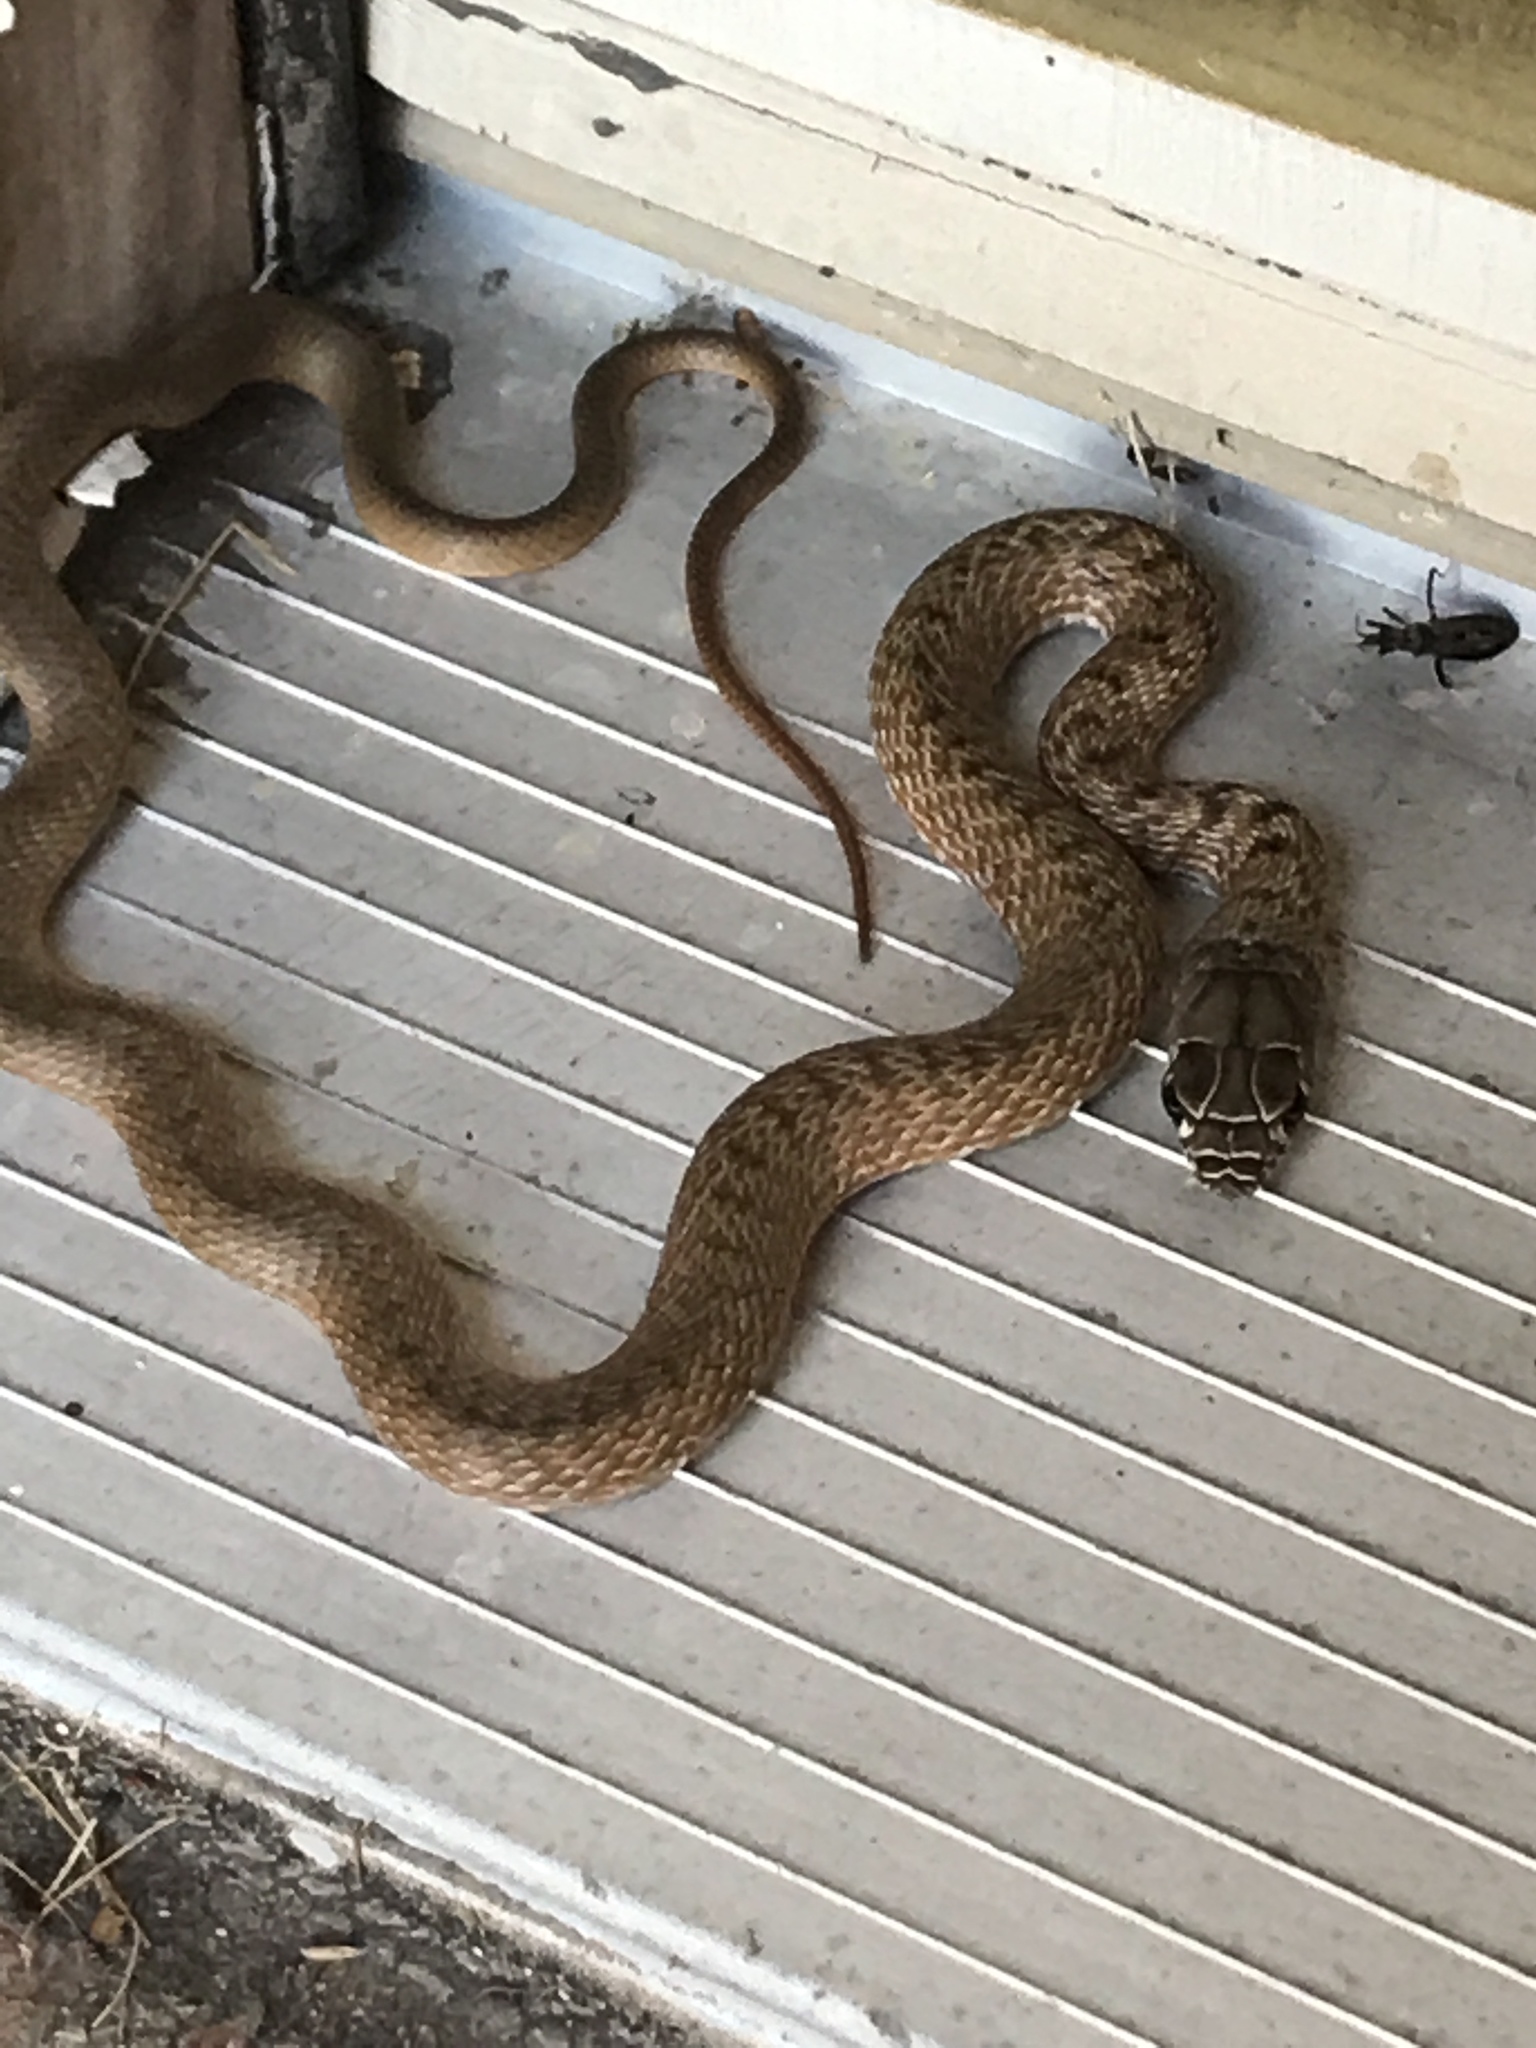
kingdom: Animalia
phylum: Chordata
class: Squamata
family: Colubridae
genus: Masticophis
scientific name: Masticophis flagellum
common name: Coachwhip
